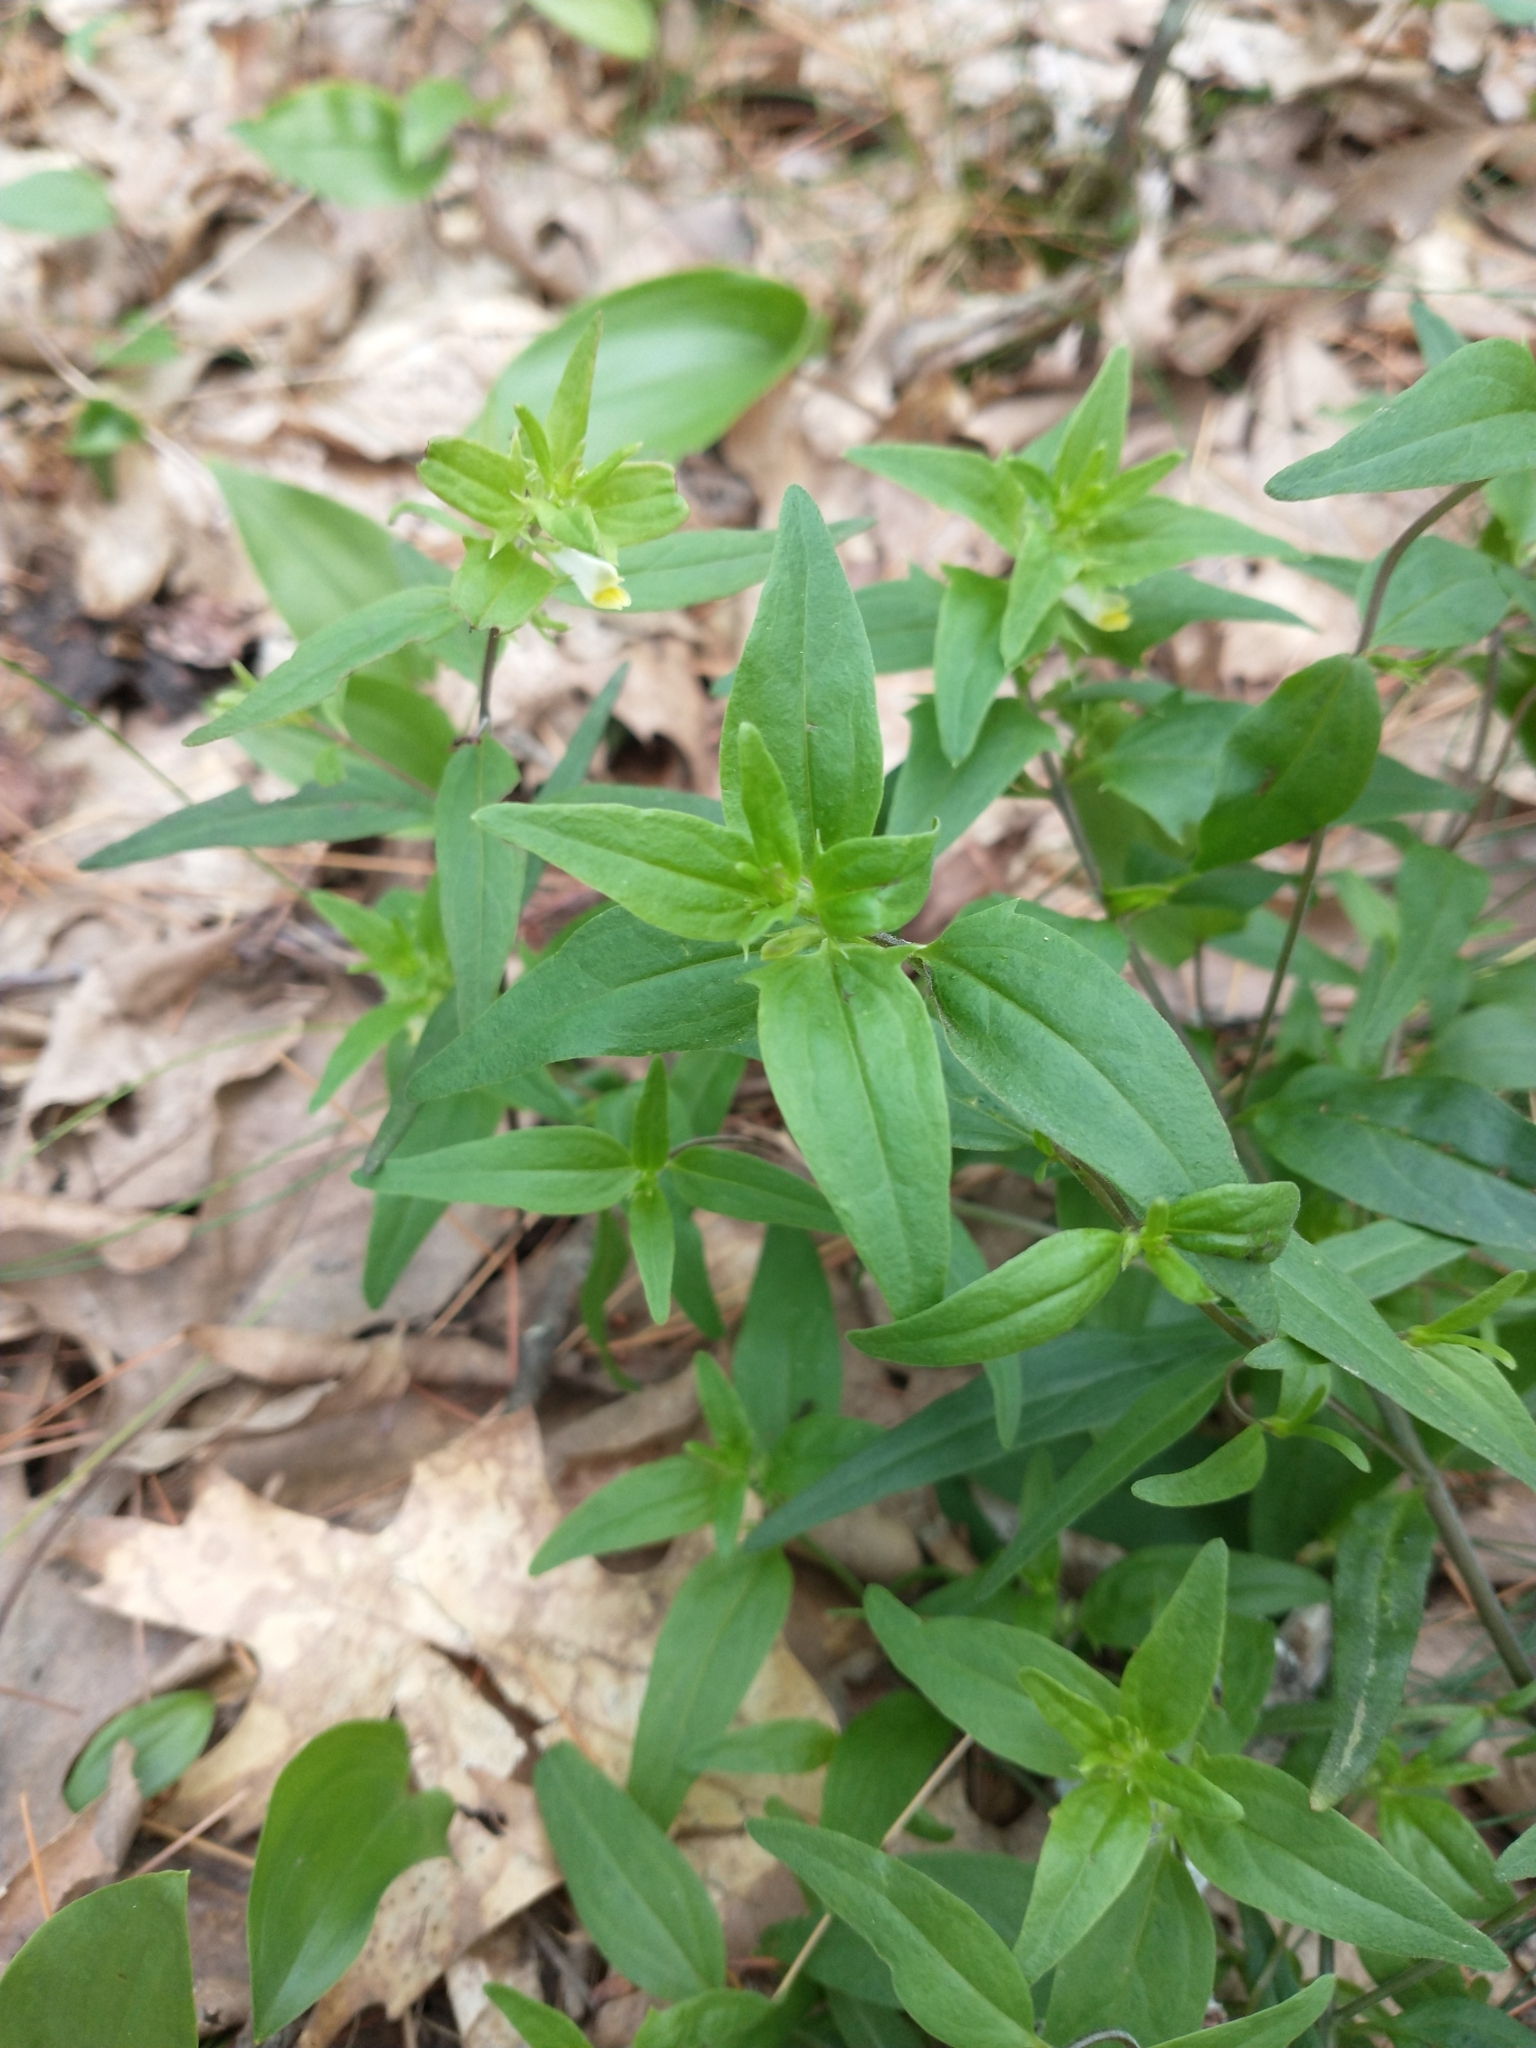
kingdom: Plantae
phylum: Tracheophyta
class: Magnoliopsida
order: Lamiales
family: Orobanchaceae
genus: Melampyrum
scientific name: Melampyrum lineare
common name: American cow-wheat
